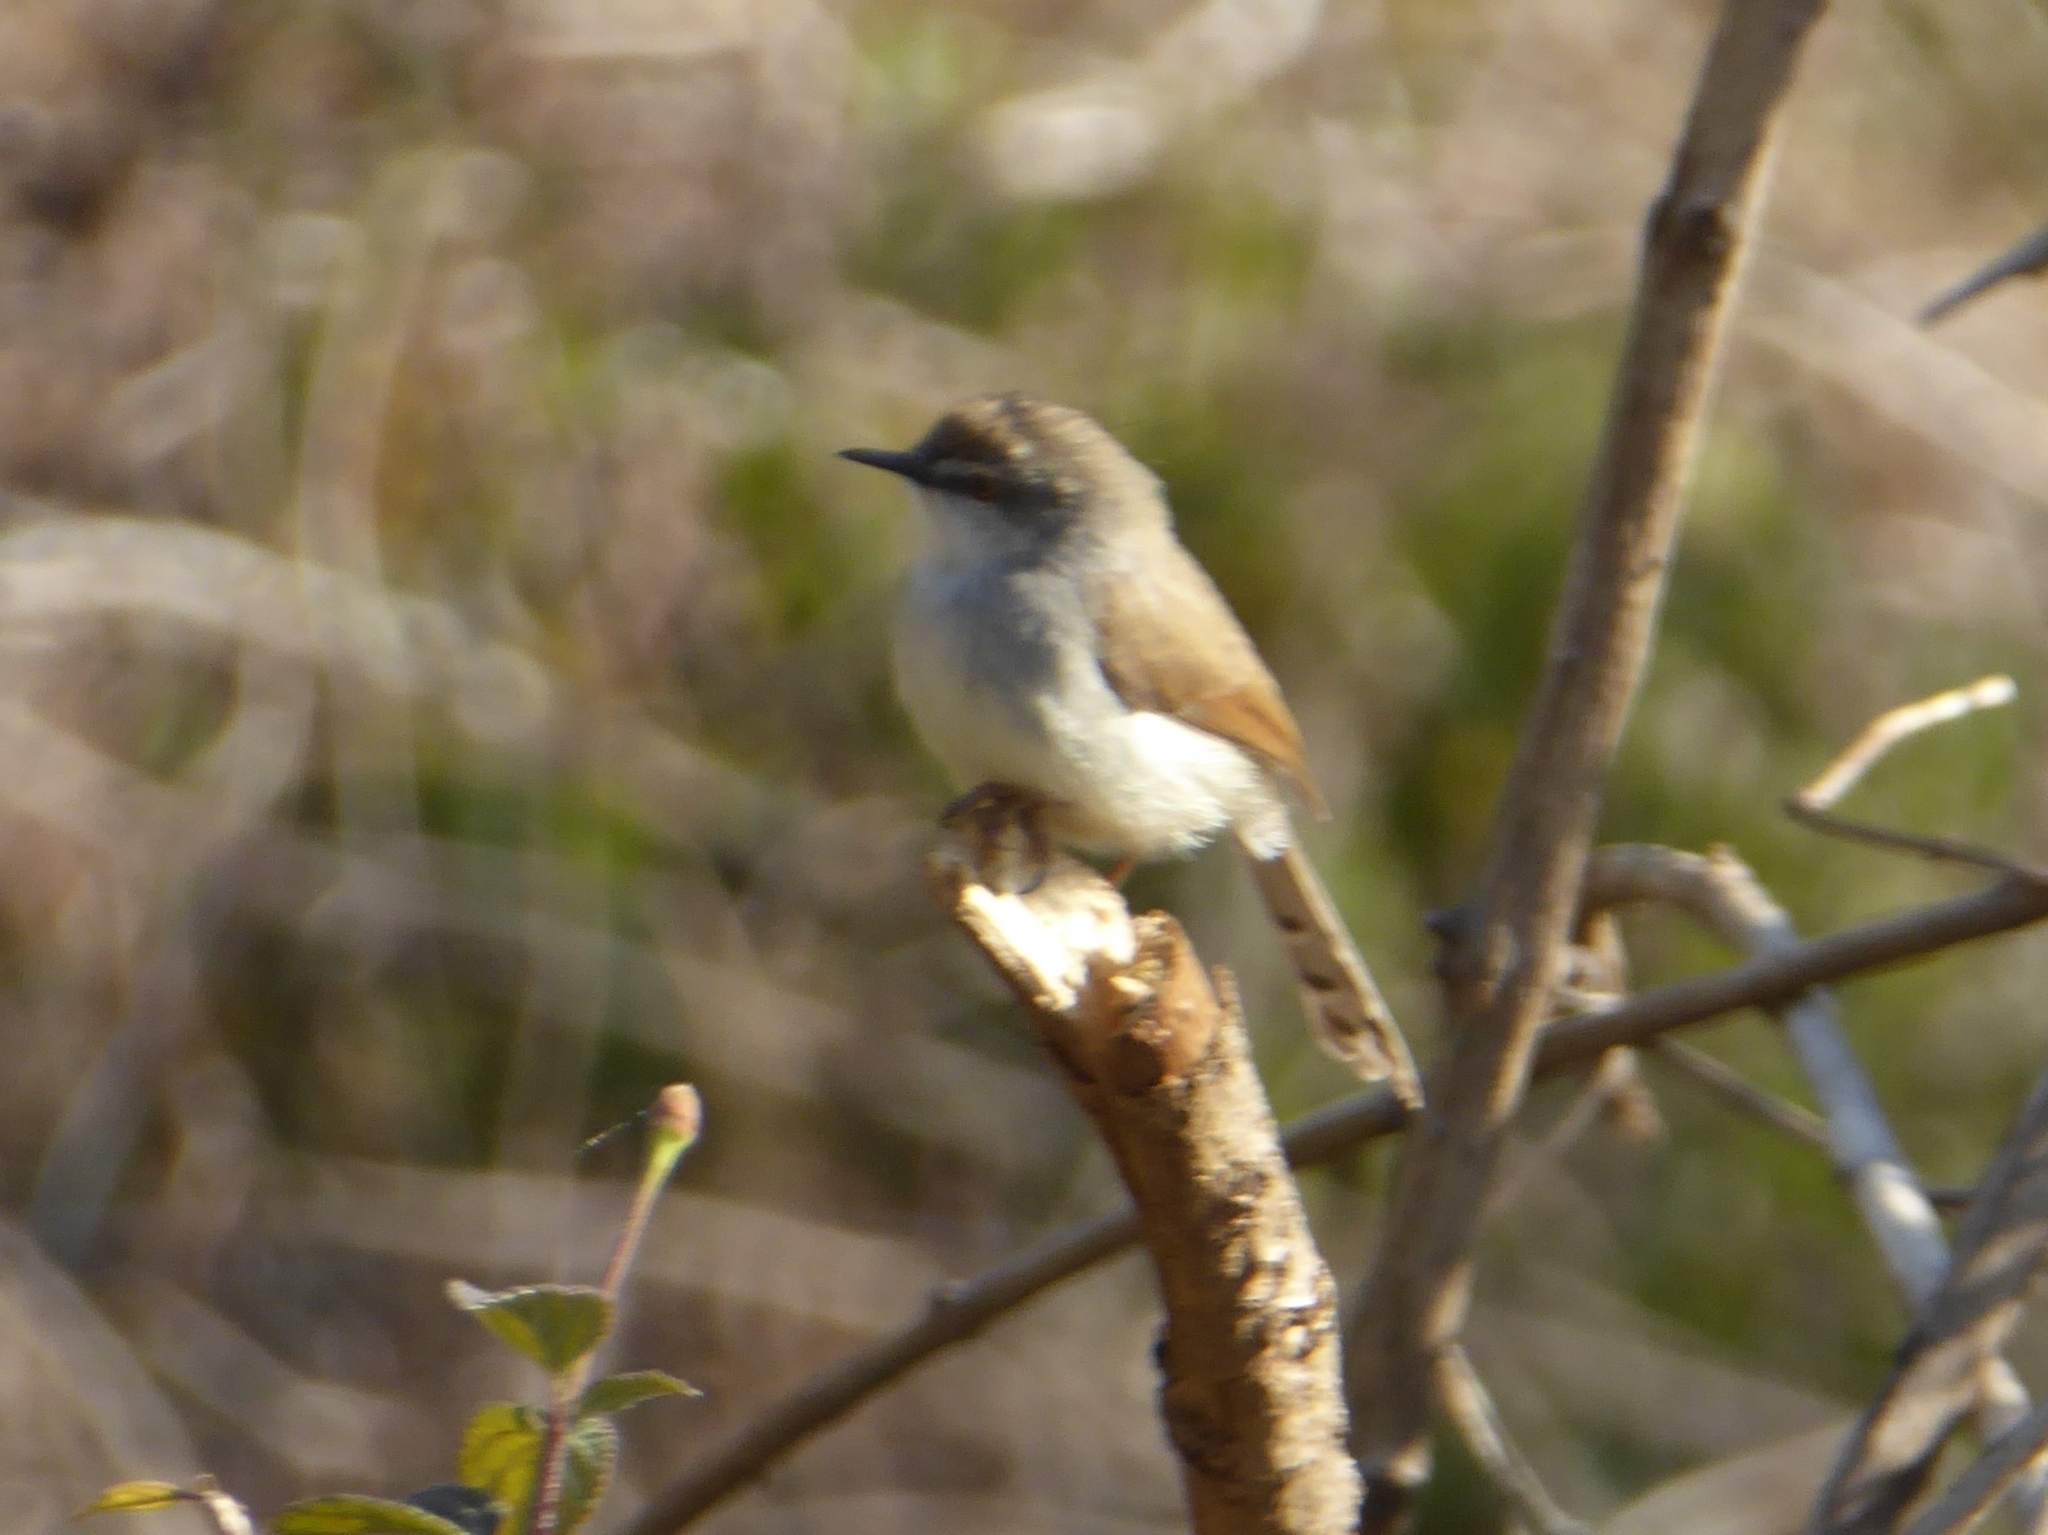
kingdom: Animalia
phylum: Chordata
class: Aves
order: Passeriformes
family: Cisticolidae
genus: Prinia
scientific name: Prinia hodgsonii
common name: Grey-breasted prinia
